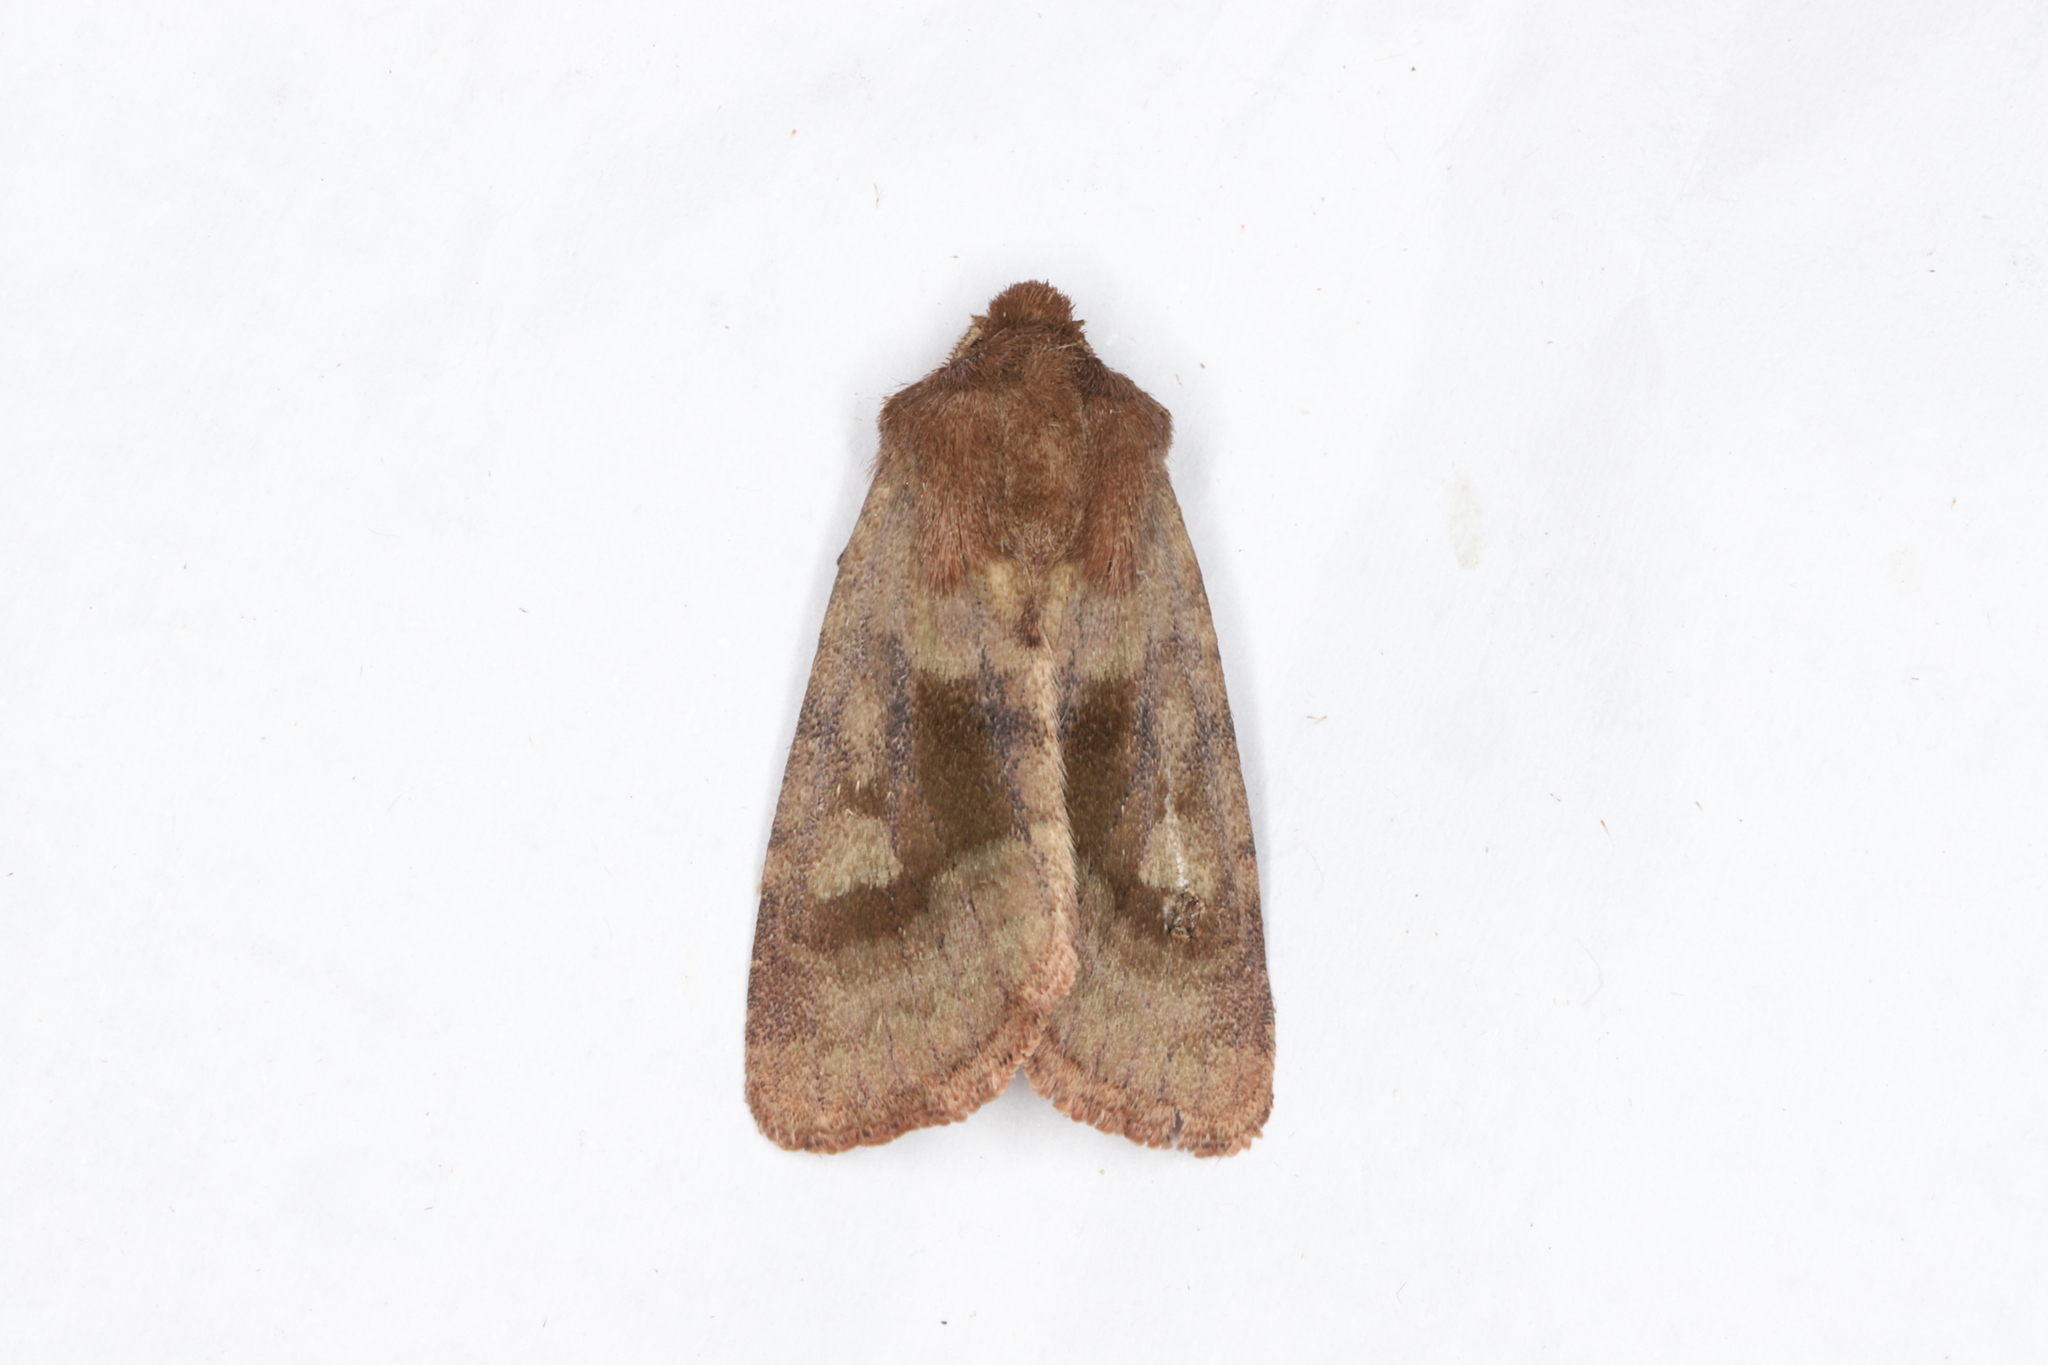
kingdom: Animalia
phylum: Arthropoda
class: Insecta
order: Lepidoptera
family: Noctuidae
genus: Nephelodes
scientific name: Nephelodes minians
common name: Bronzed cutworm
